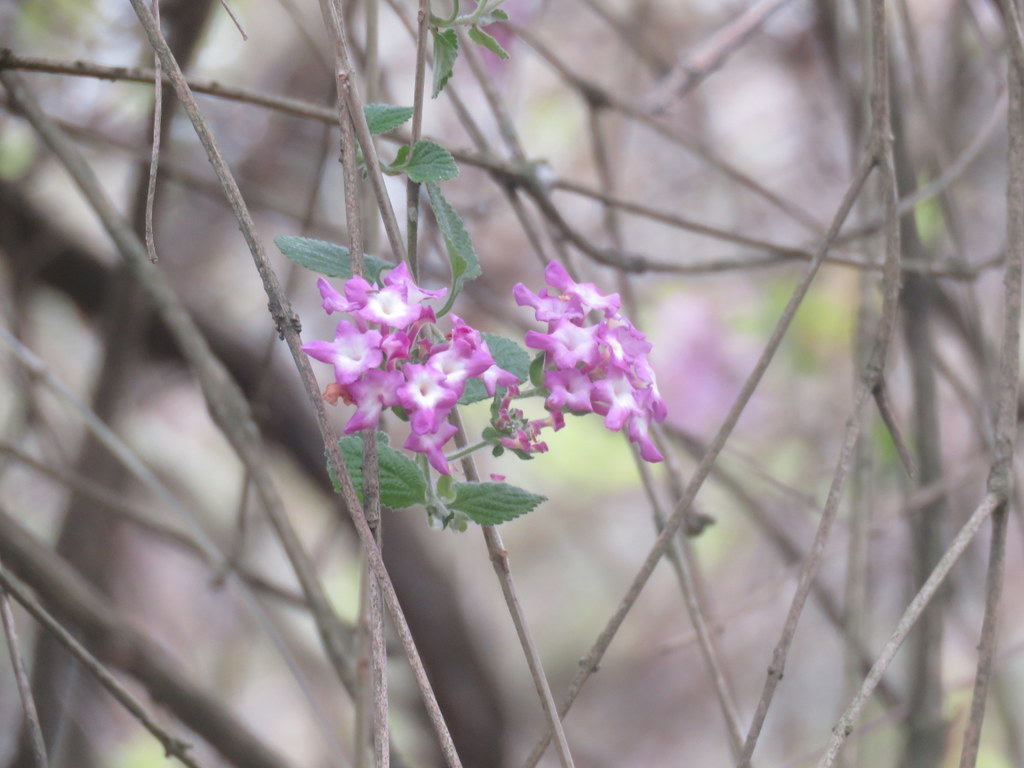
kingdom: Plantae
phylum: Tracheophyta
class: Magnoliopsida
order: Lamiales
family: Verbenaceae
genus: Lantana
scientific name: Lantana megapotamica
